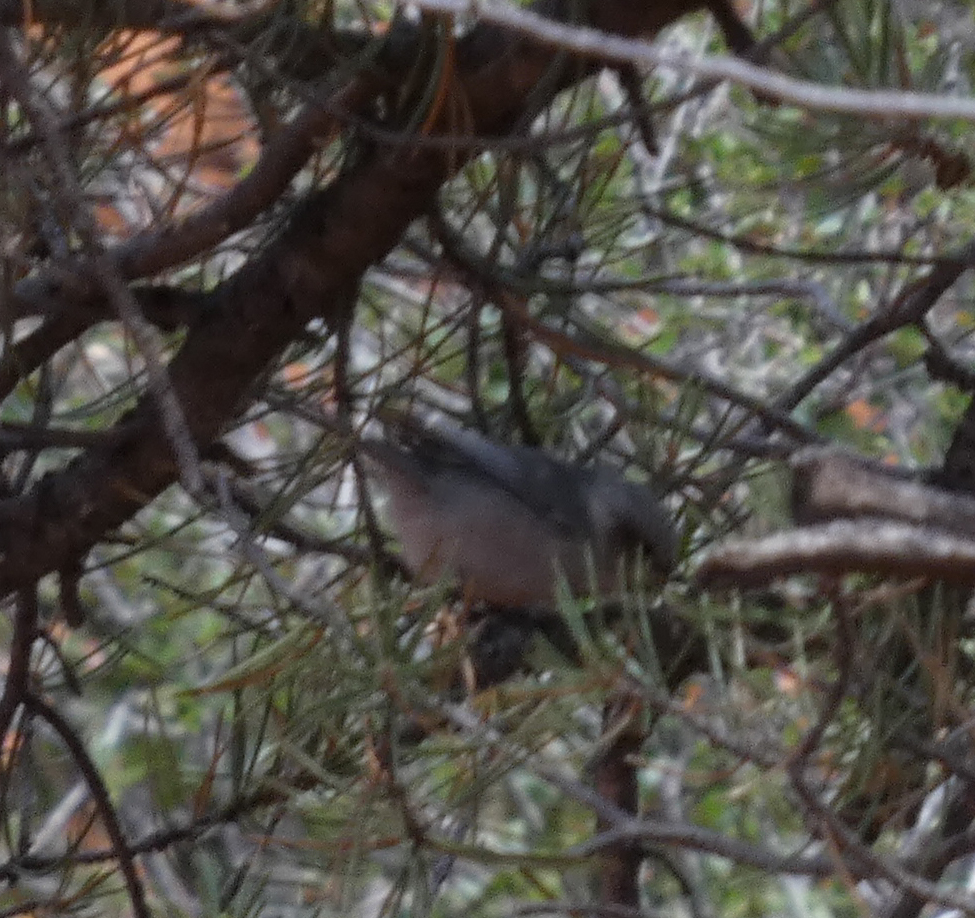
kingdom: Animalia
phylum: Chordata
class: Aves
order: Passeriformes
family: Aegithalidae
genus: Psaltriparus
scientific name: Psaltriparus minimus
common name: American bushtit
